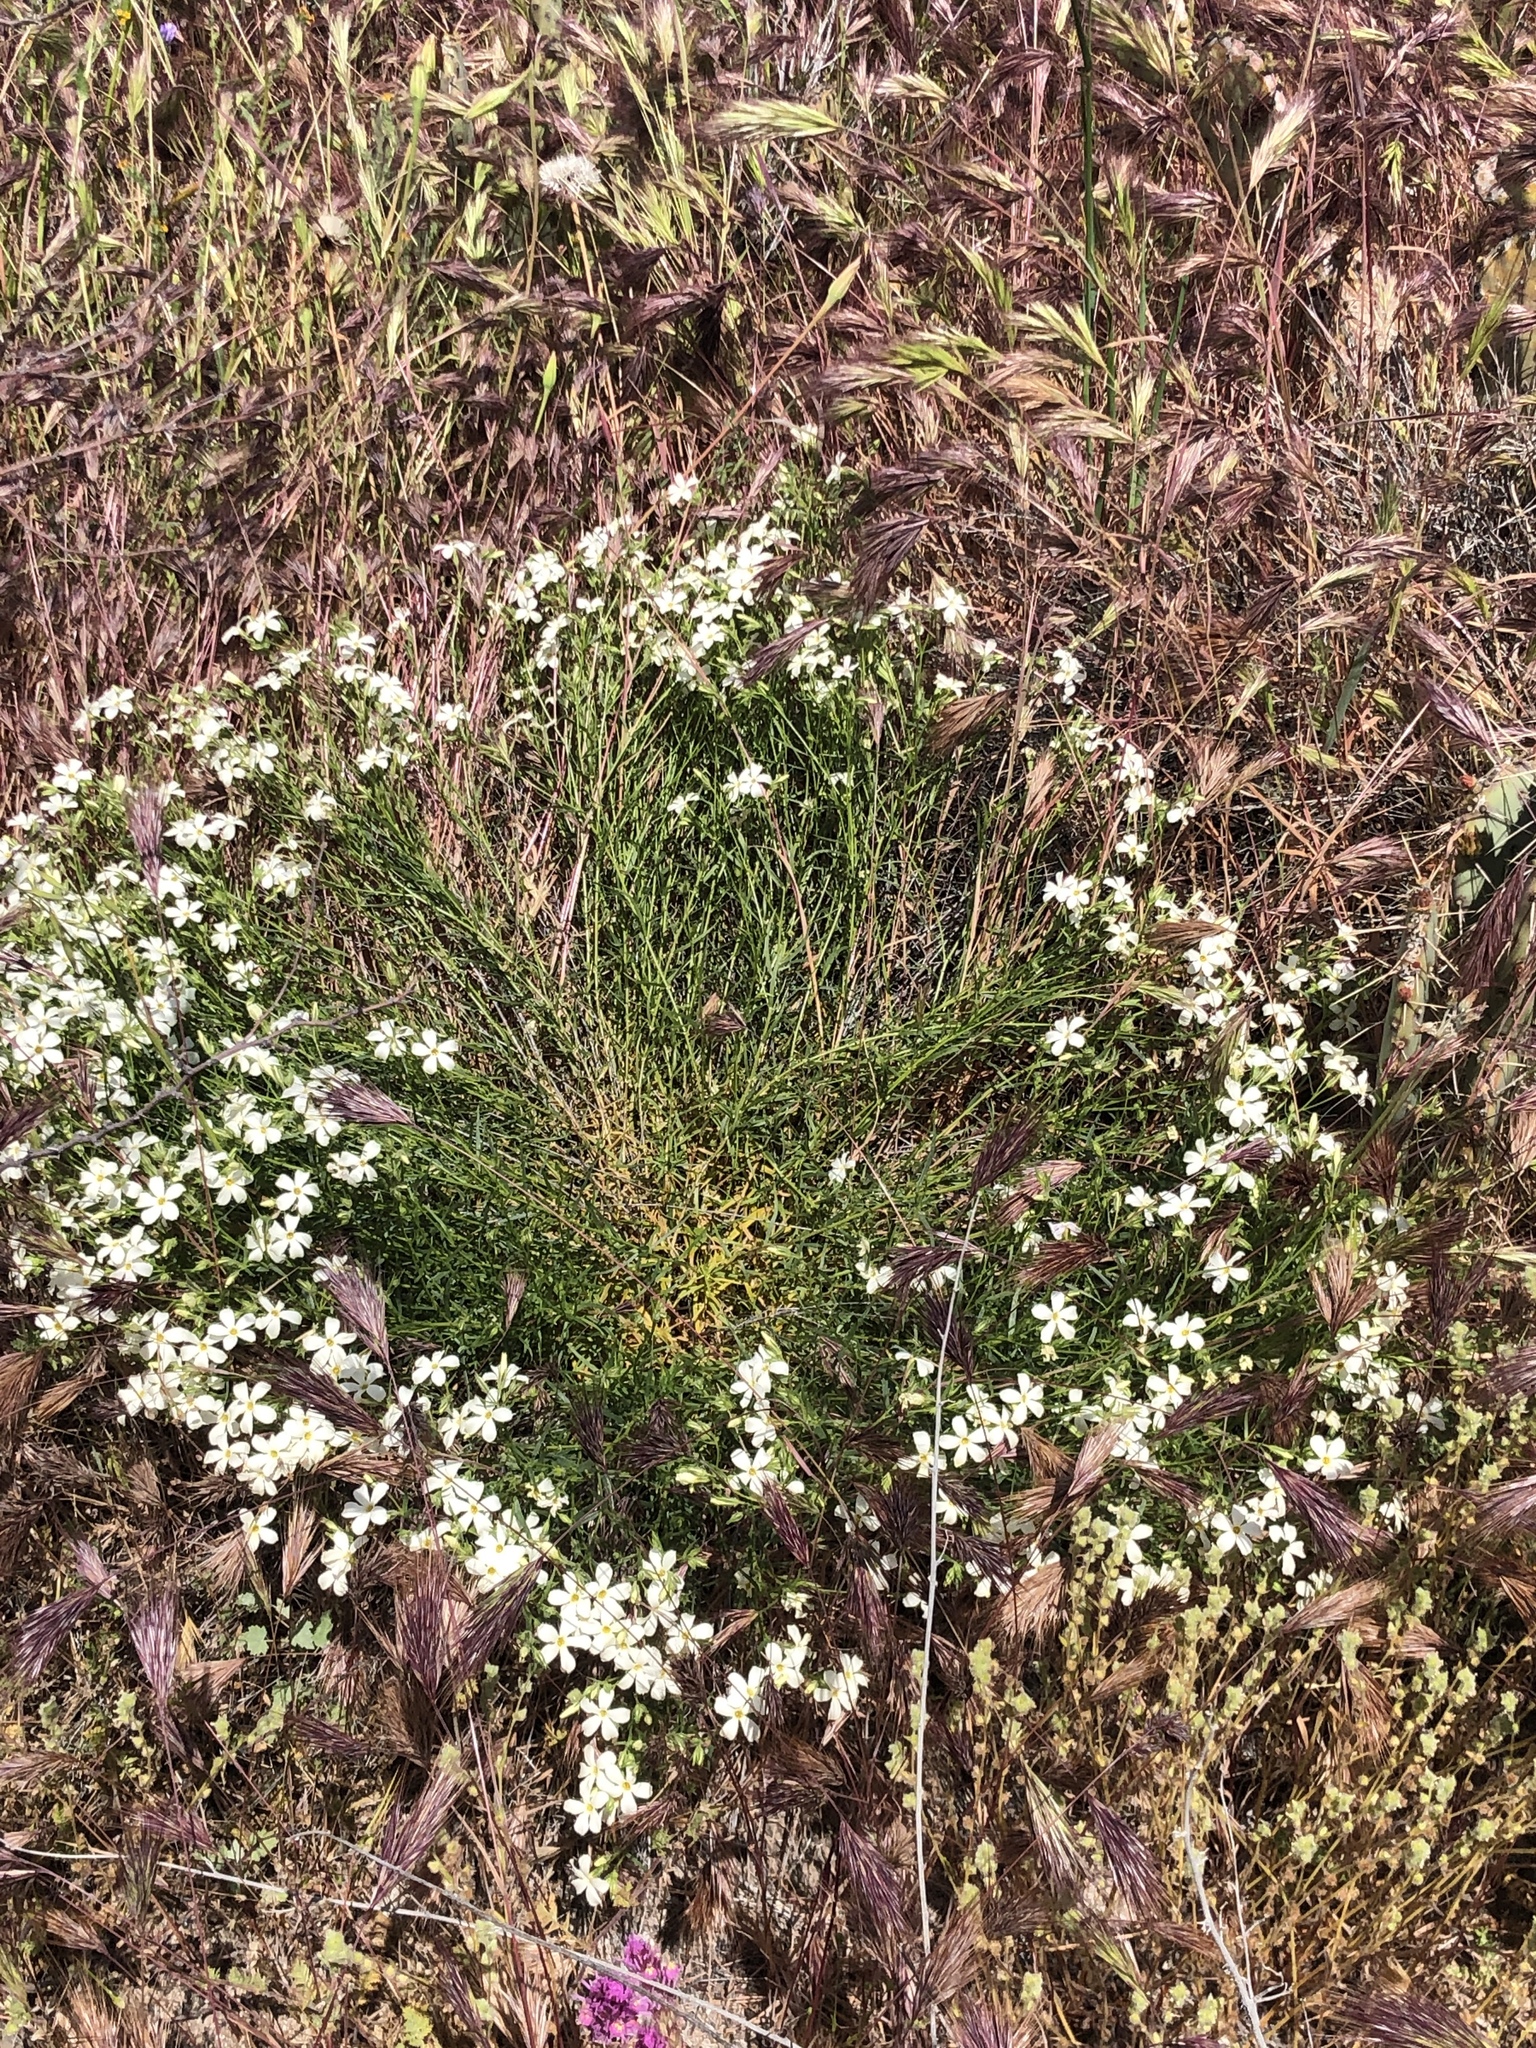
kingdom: Plantae
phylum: Tracheophyta
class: Magnoliopsida
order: Ericales
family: Polemoniaceae
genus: Phlox
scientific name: Phlox tenuifolia
